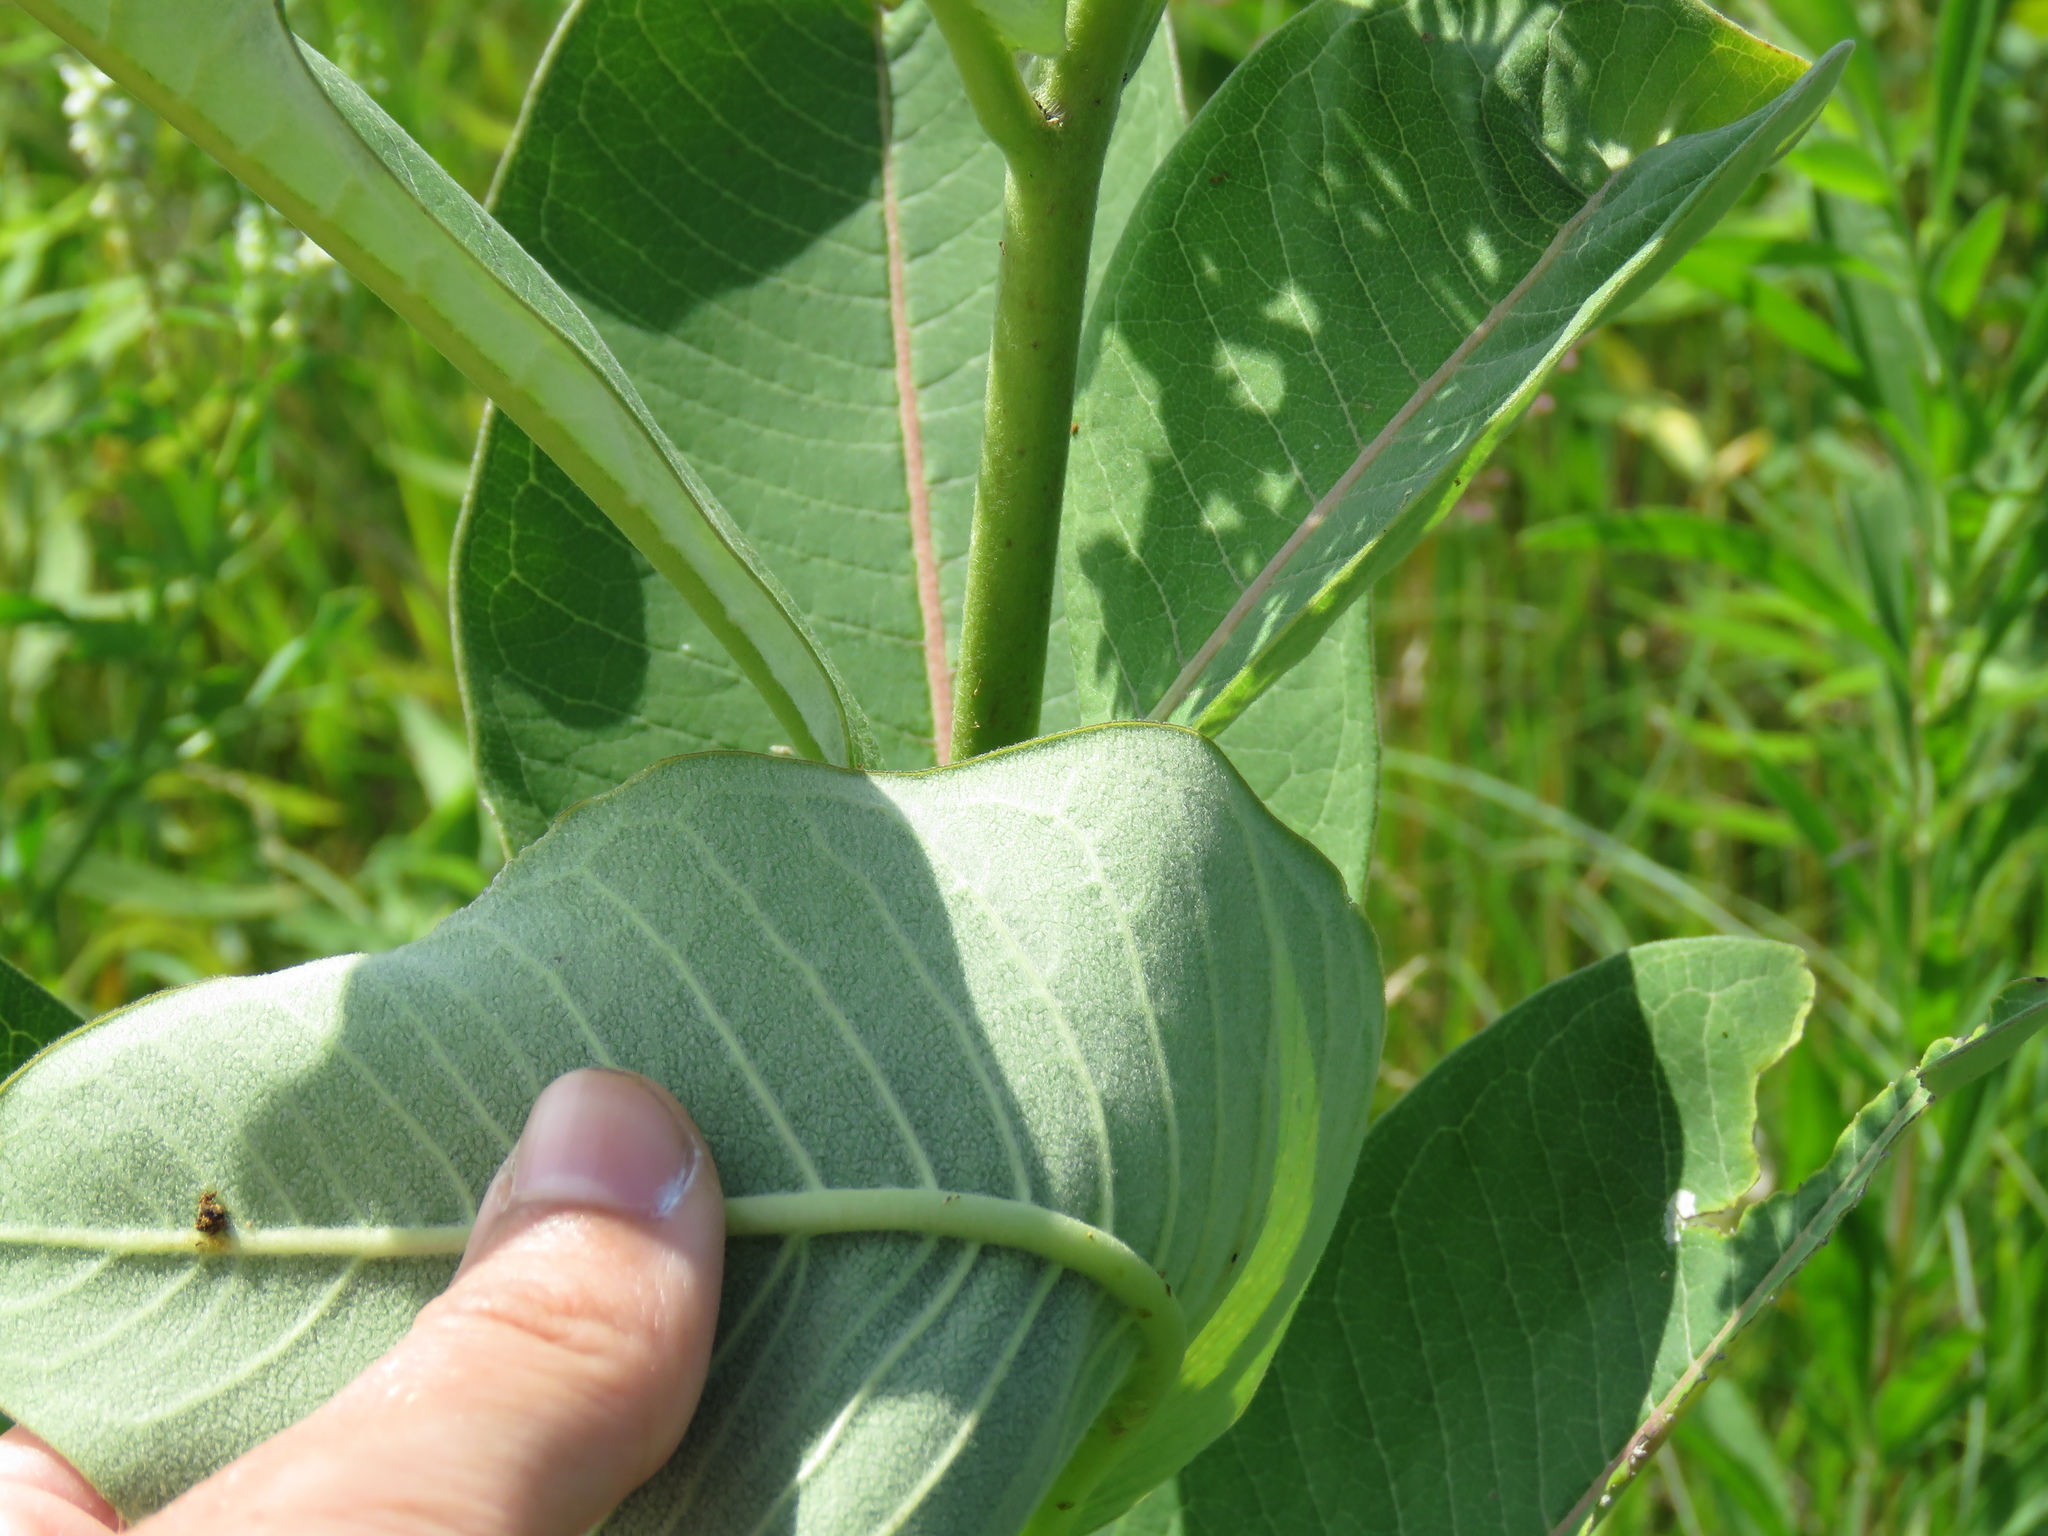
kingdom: Plantae
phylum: Tracheophyta
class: Magnoliopsida
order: Gentianales
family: Apocynaceae
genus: Asclepias
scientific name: Asclepias syriaca
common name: Common milkweed
